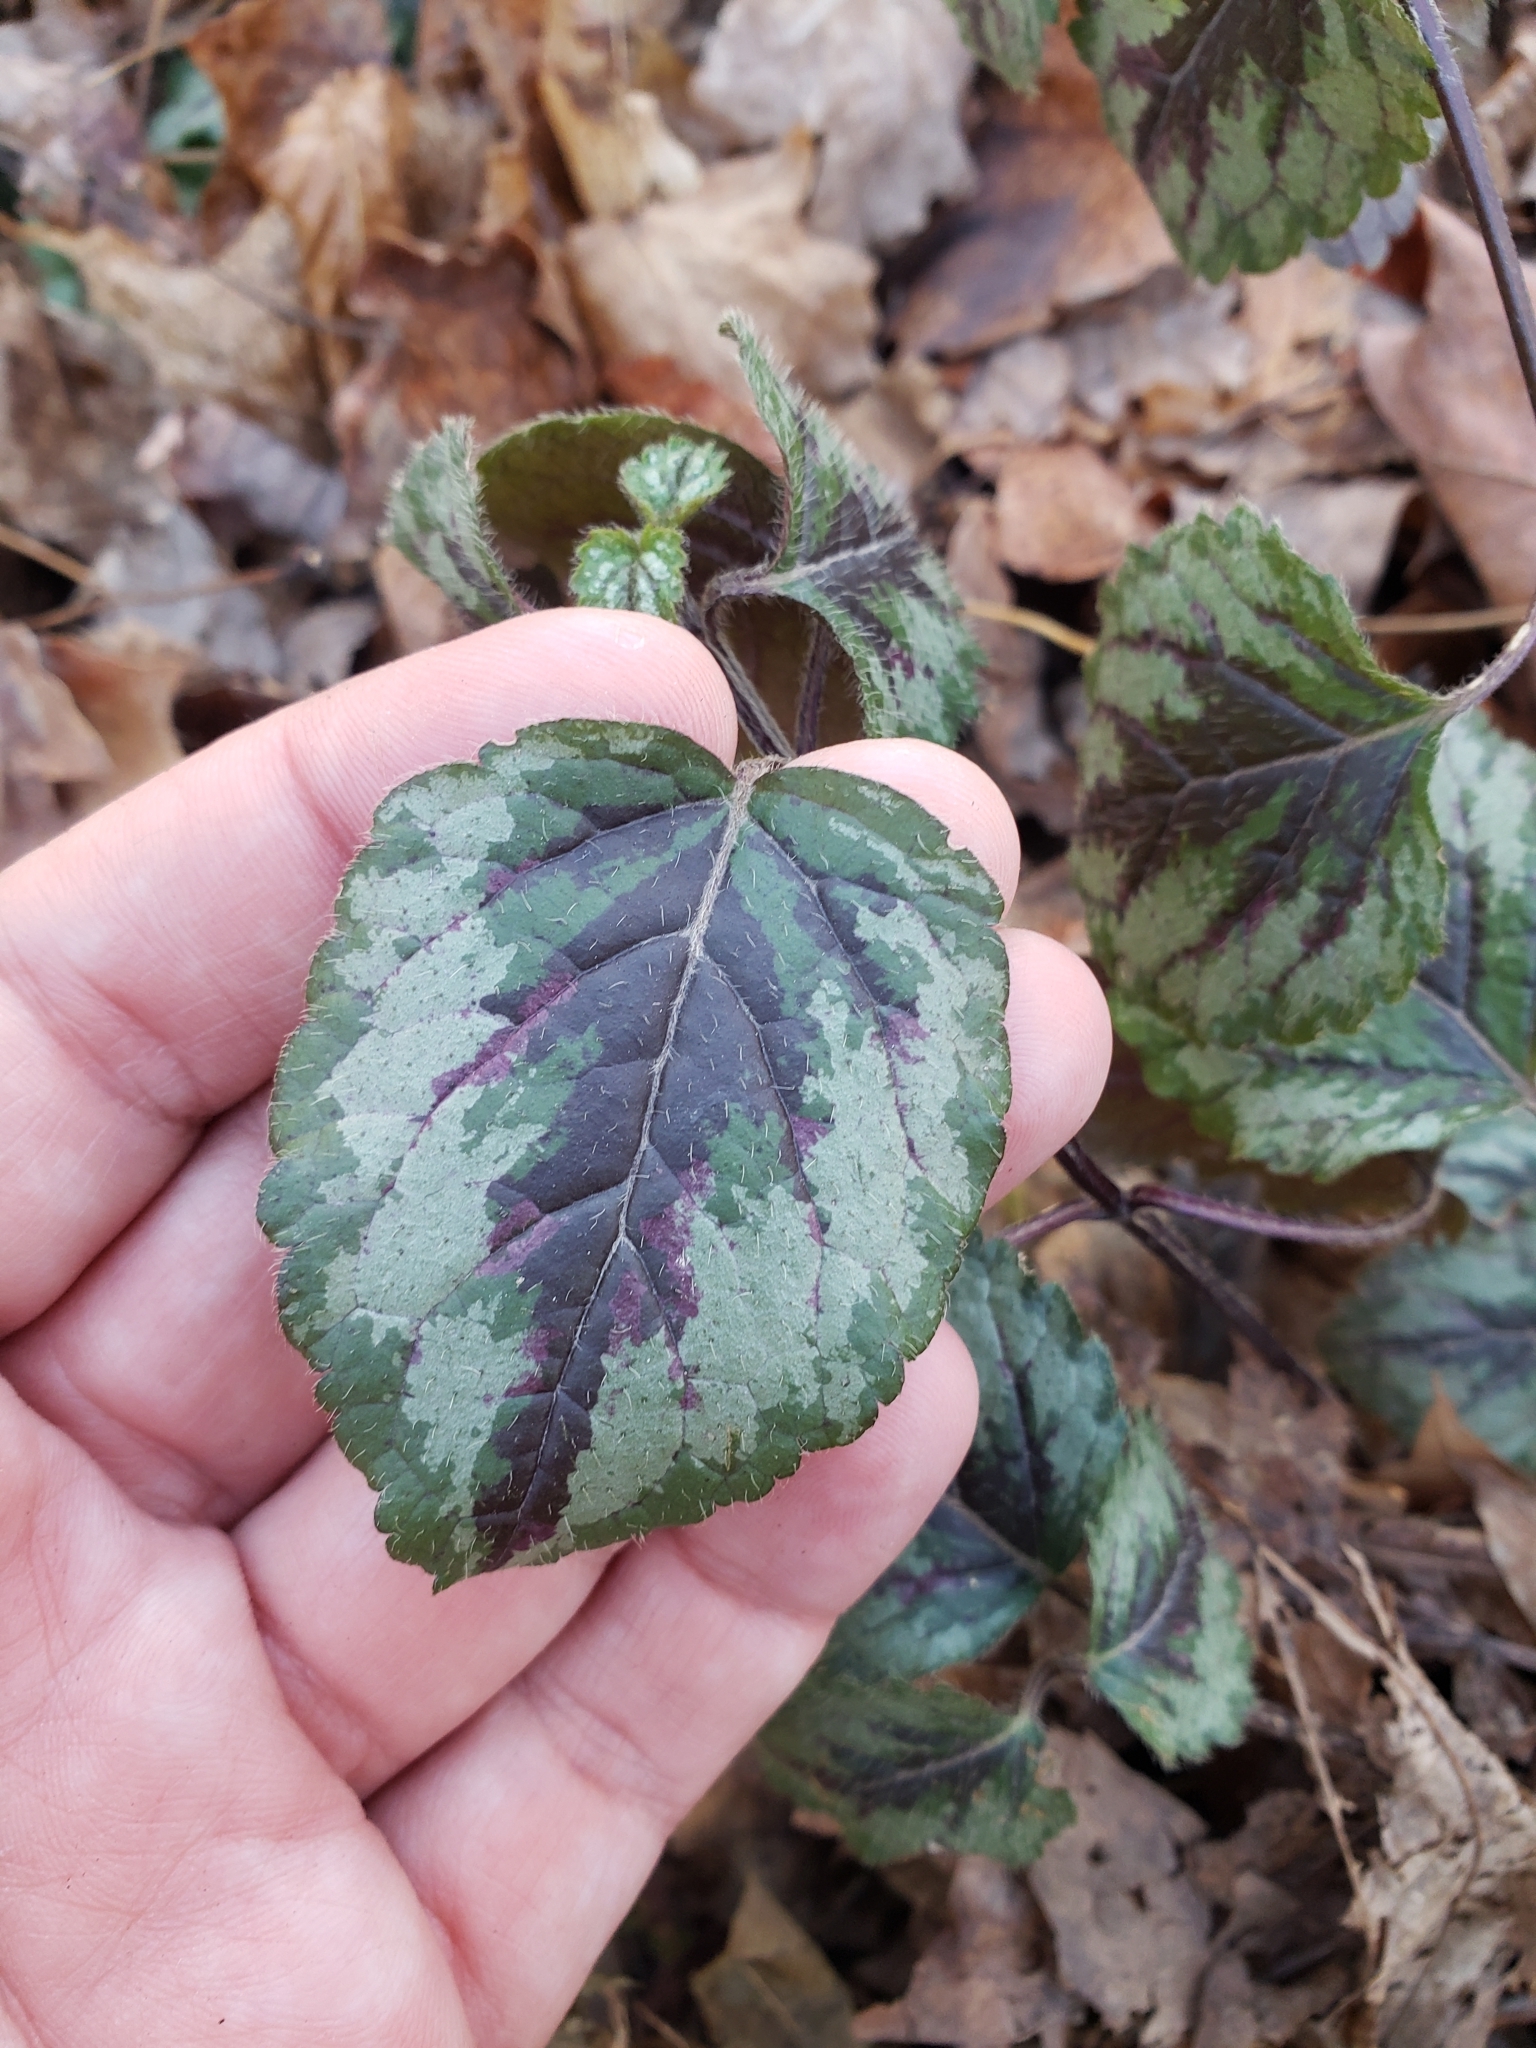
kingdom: Plantae
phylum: Tracheophyta
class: Magnoliopsida
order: Lamiales
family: Lamiaceae
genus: Lamium
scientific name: Lamium galeobdolon
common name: Yellow archangel
